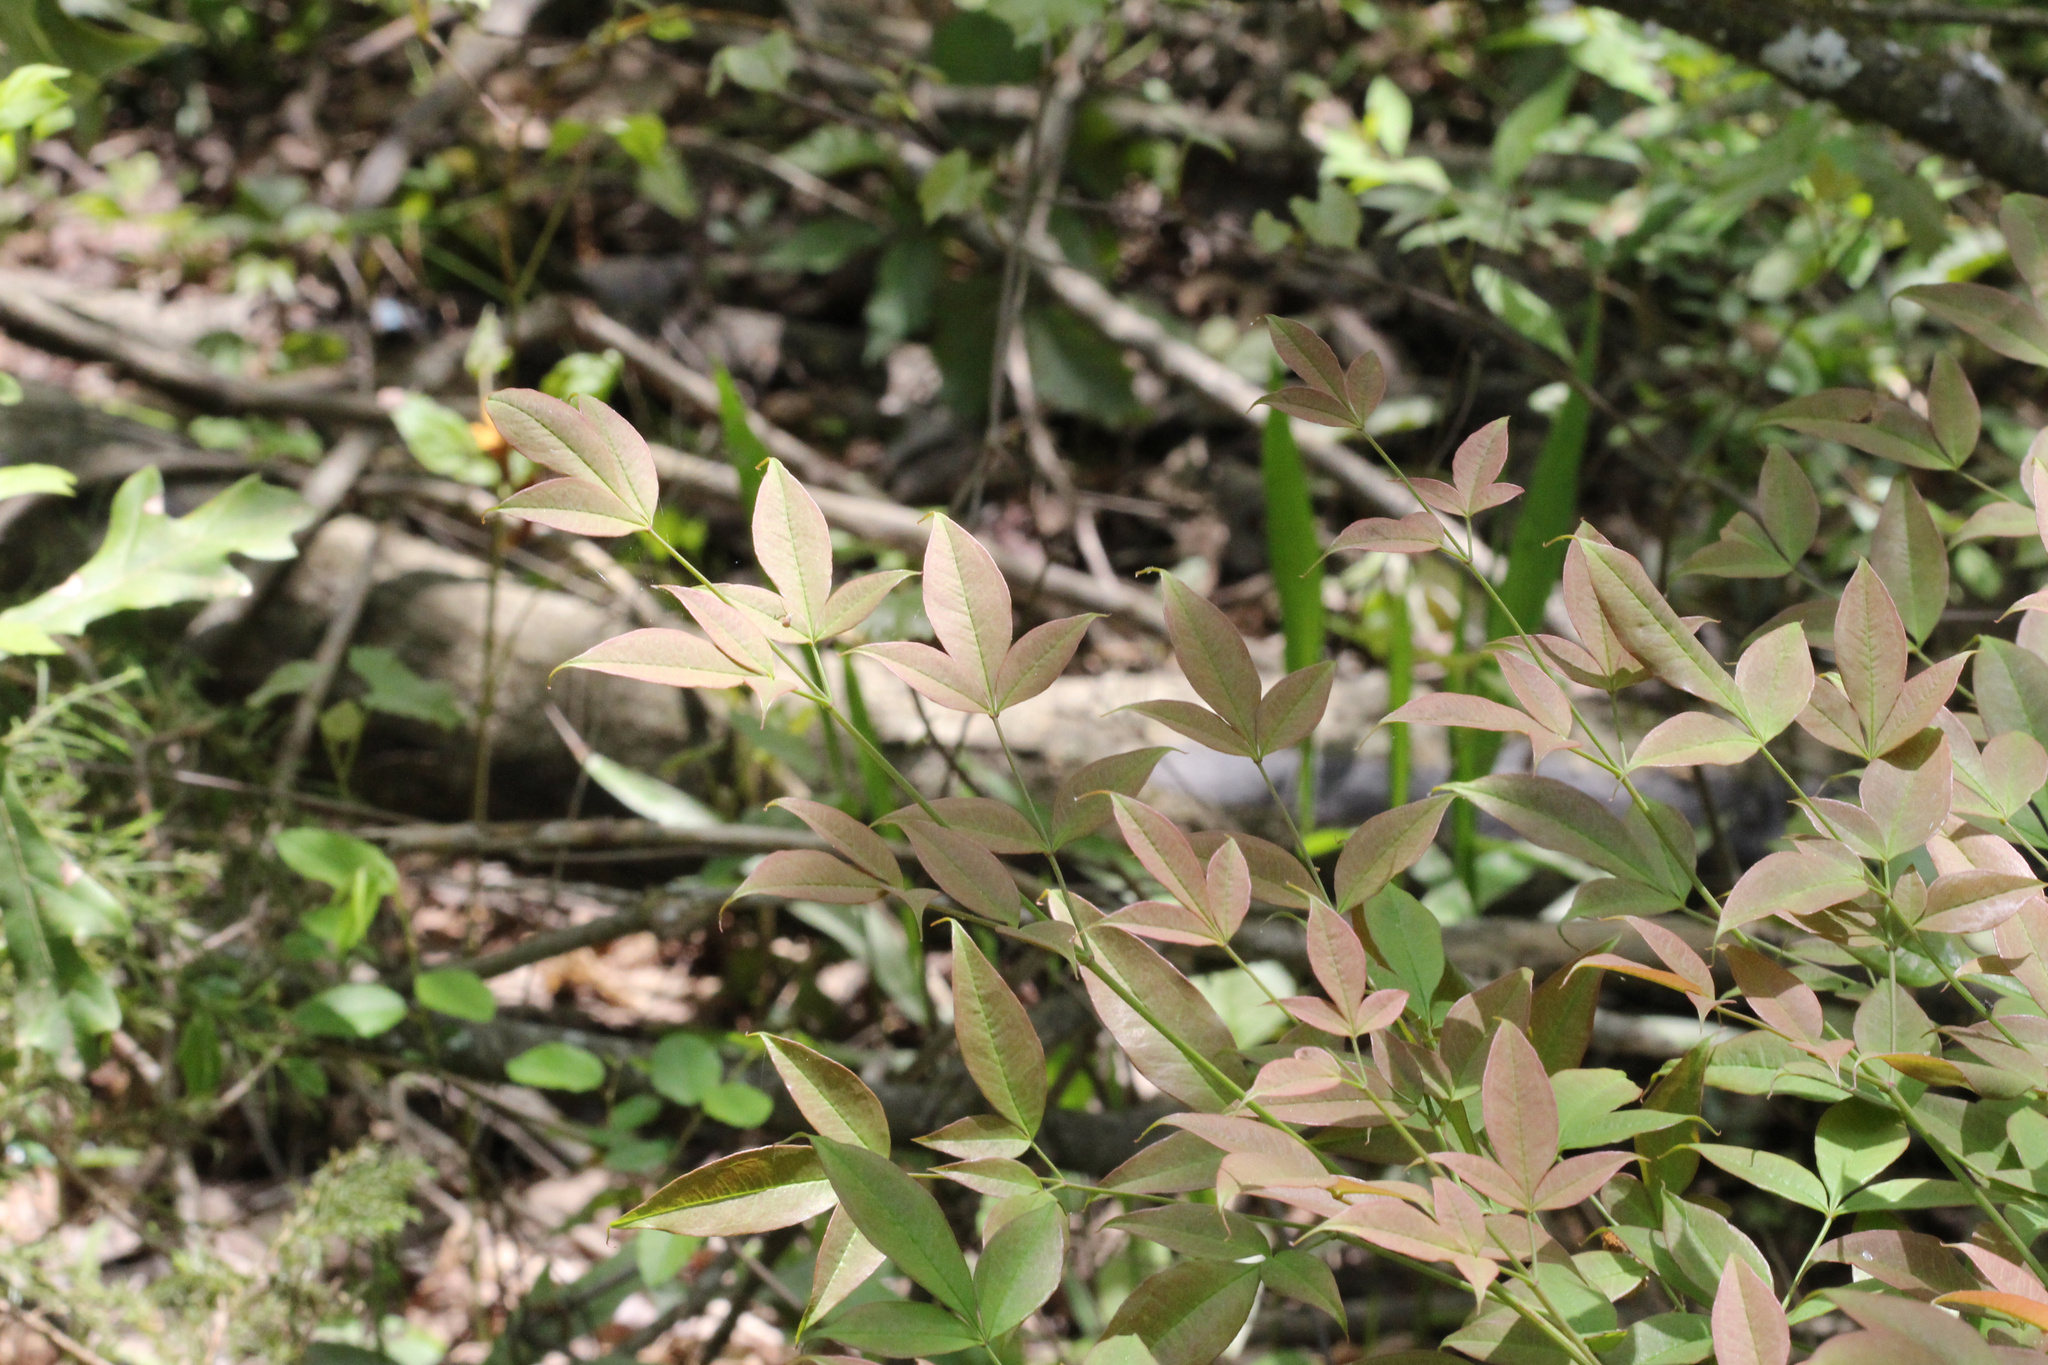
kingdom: Plantae
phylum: Tracheophyta
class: Magnoliopsida
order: Ranunculales
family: Berberidaceae
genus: Nandina
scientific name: Nandina domestica
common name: Sacred bamboo
